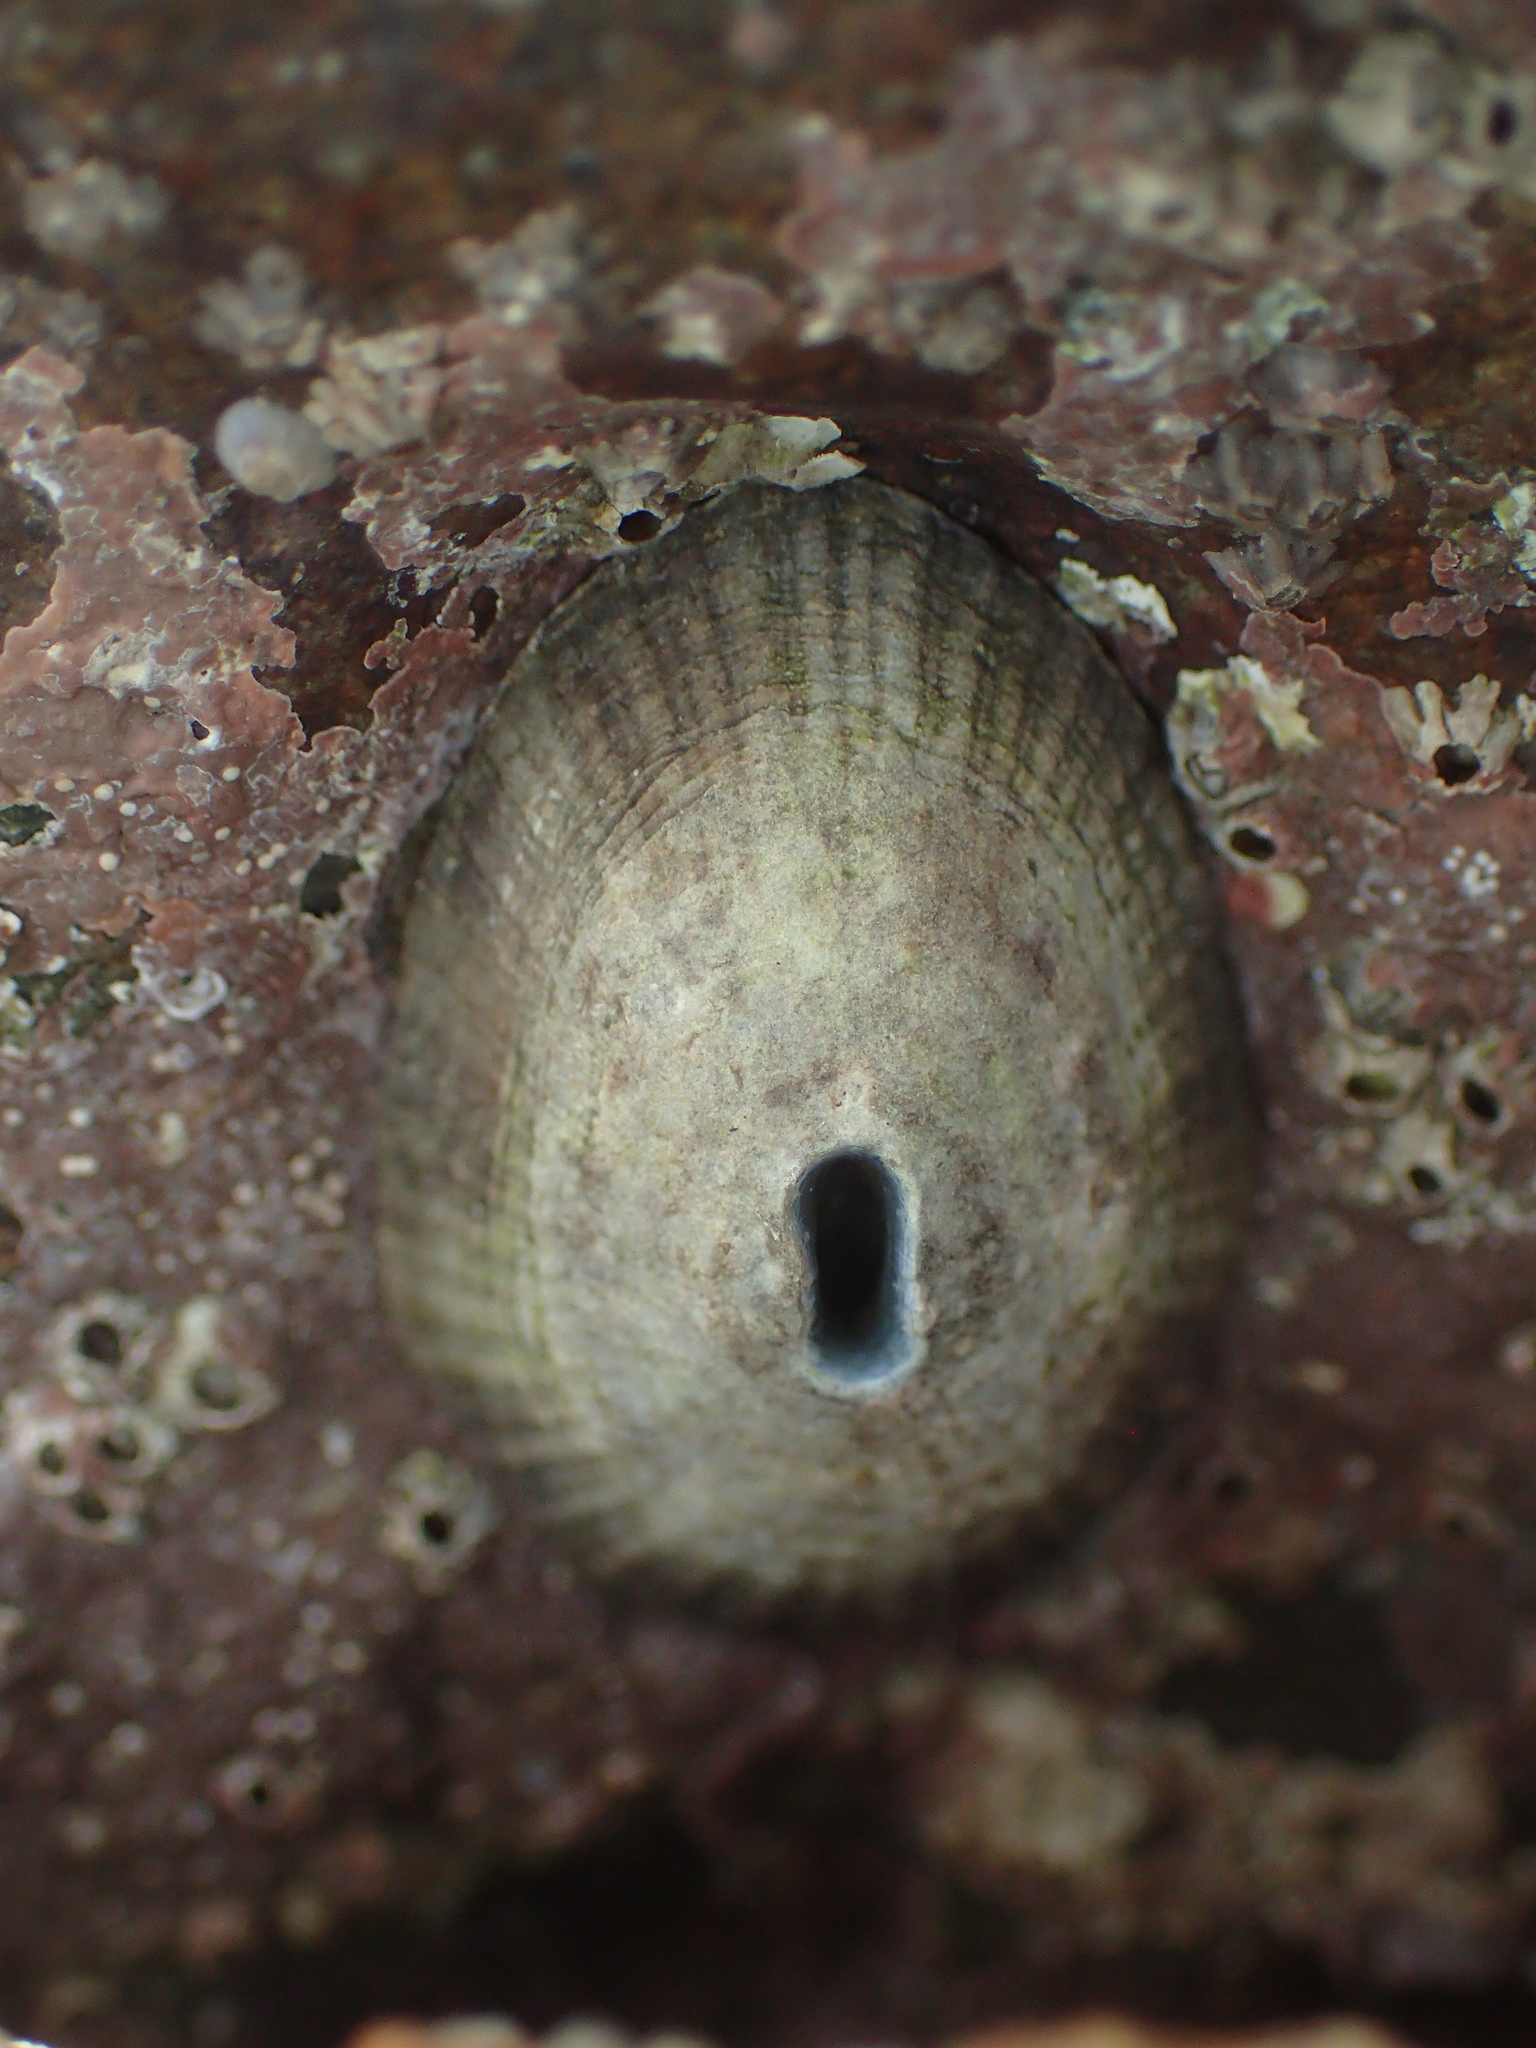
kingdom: Animalia
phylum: Mollusca
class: Gastropoda
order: Lepetellida
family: Fissurellidae
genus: Fissurella
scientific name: Fissurella virescens
